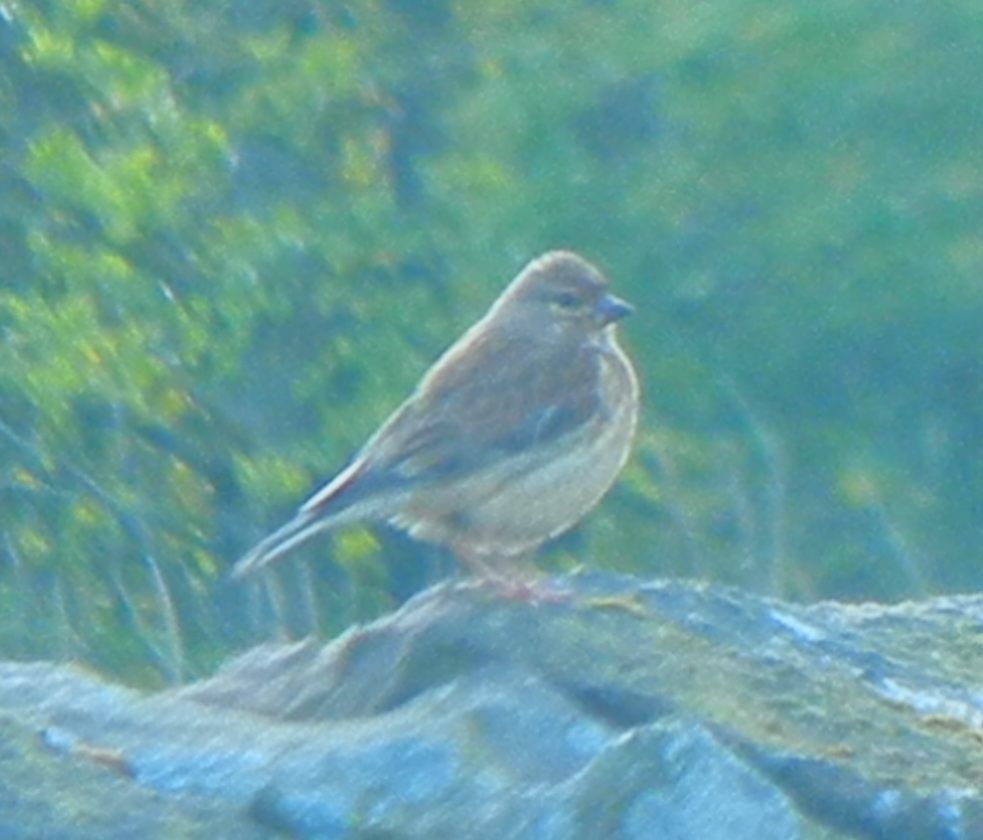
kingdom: Animalia
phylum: Chordata
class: Aves
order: Passeriformes
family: Fringillidae
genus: Linaria
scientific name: Linaria cannabina
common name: Common linnet
